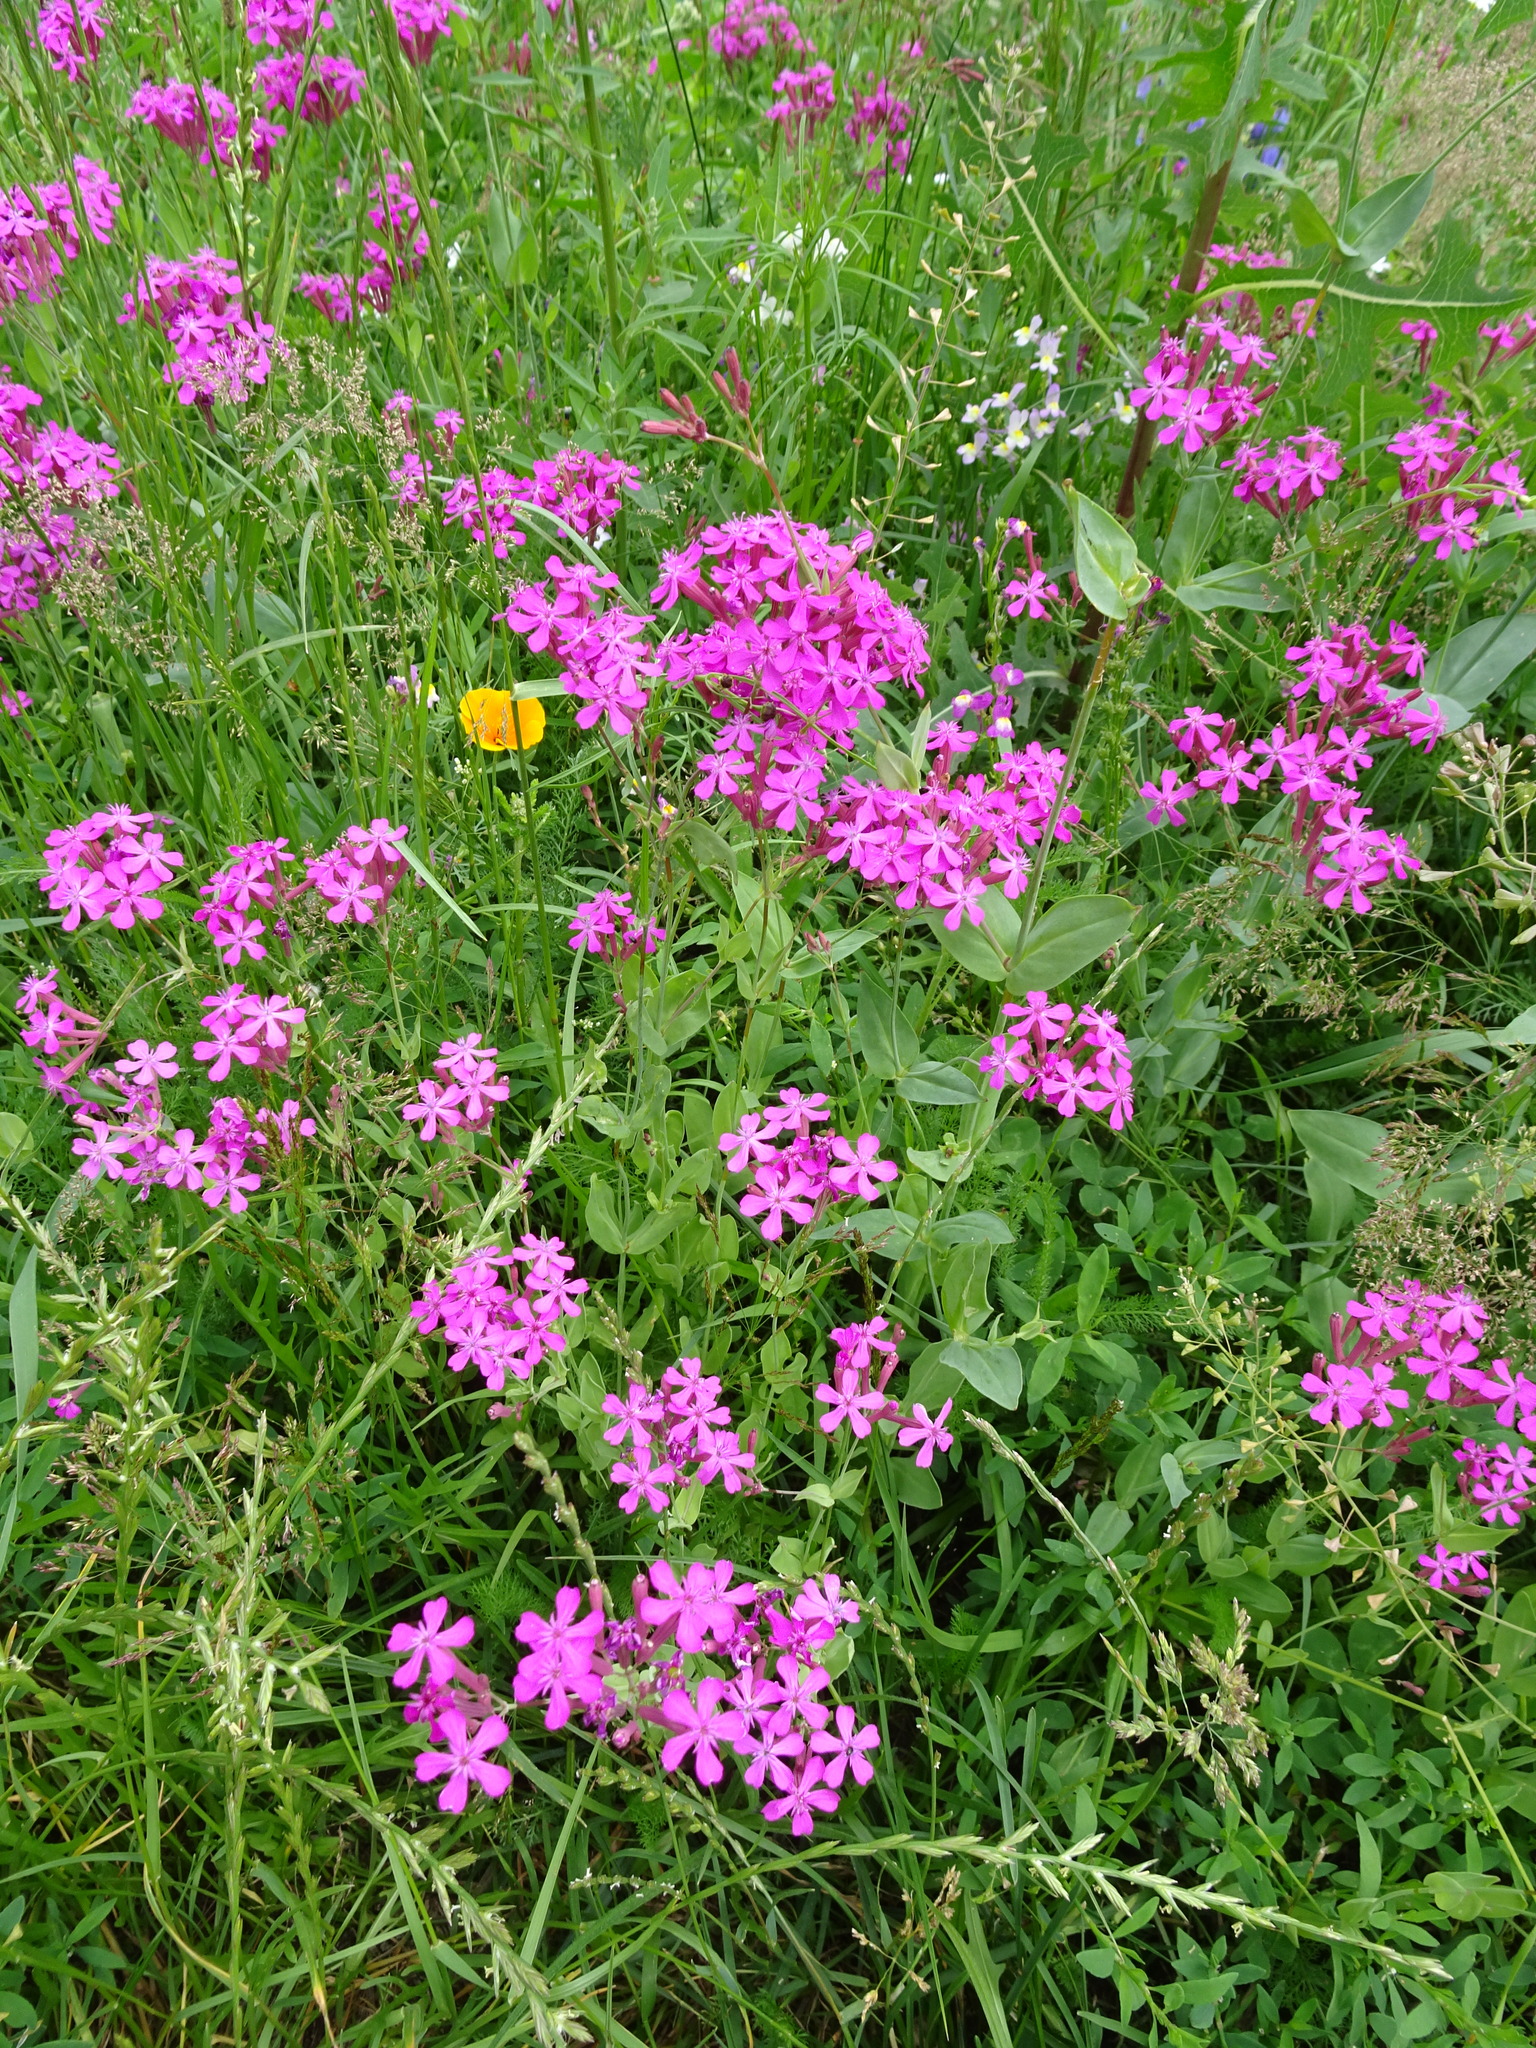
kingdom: Plantae
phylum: Tracheophyta
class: Magnoliopsida
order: Caryophyllales
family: Caryophyllaceae
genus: Atocion
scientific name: Atocion armeria
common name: Sweet william catchfly
